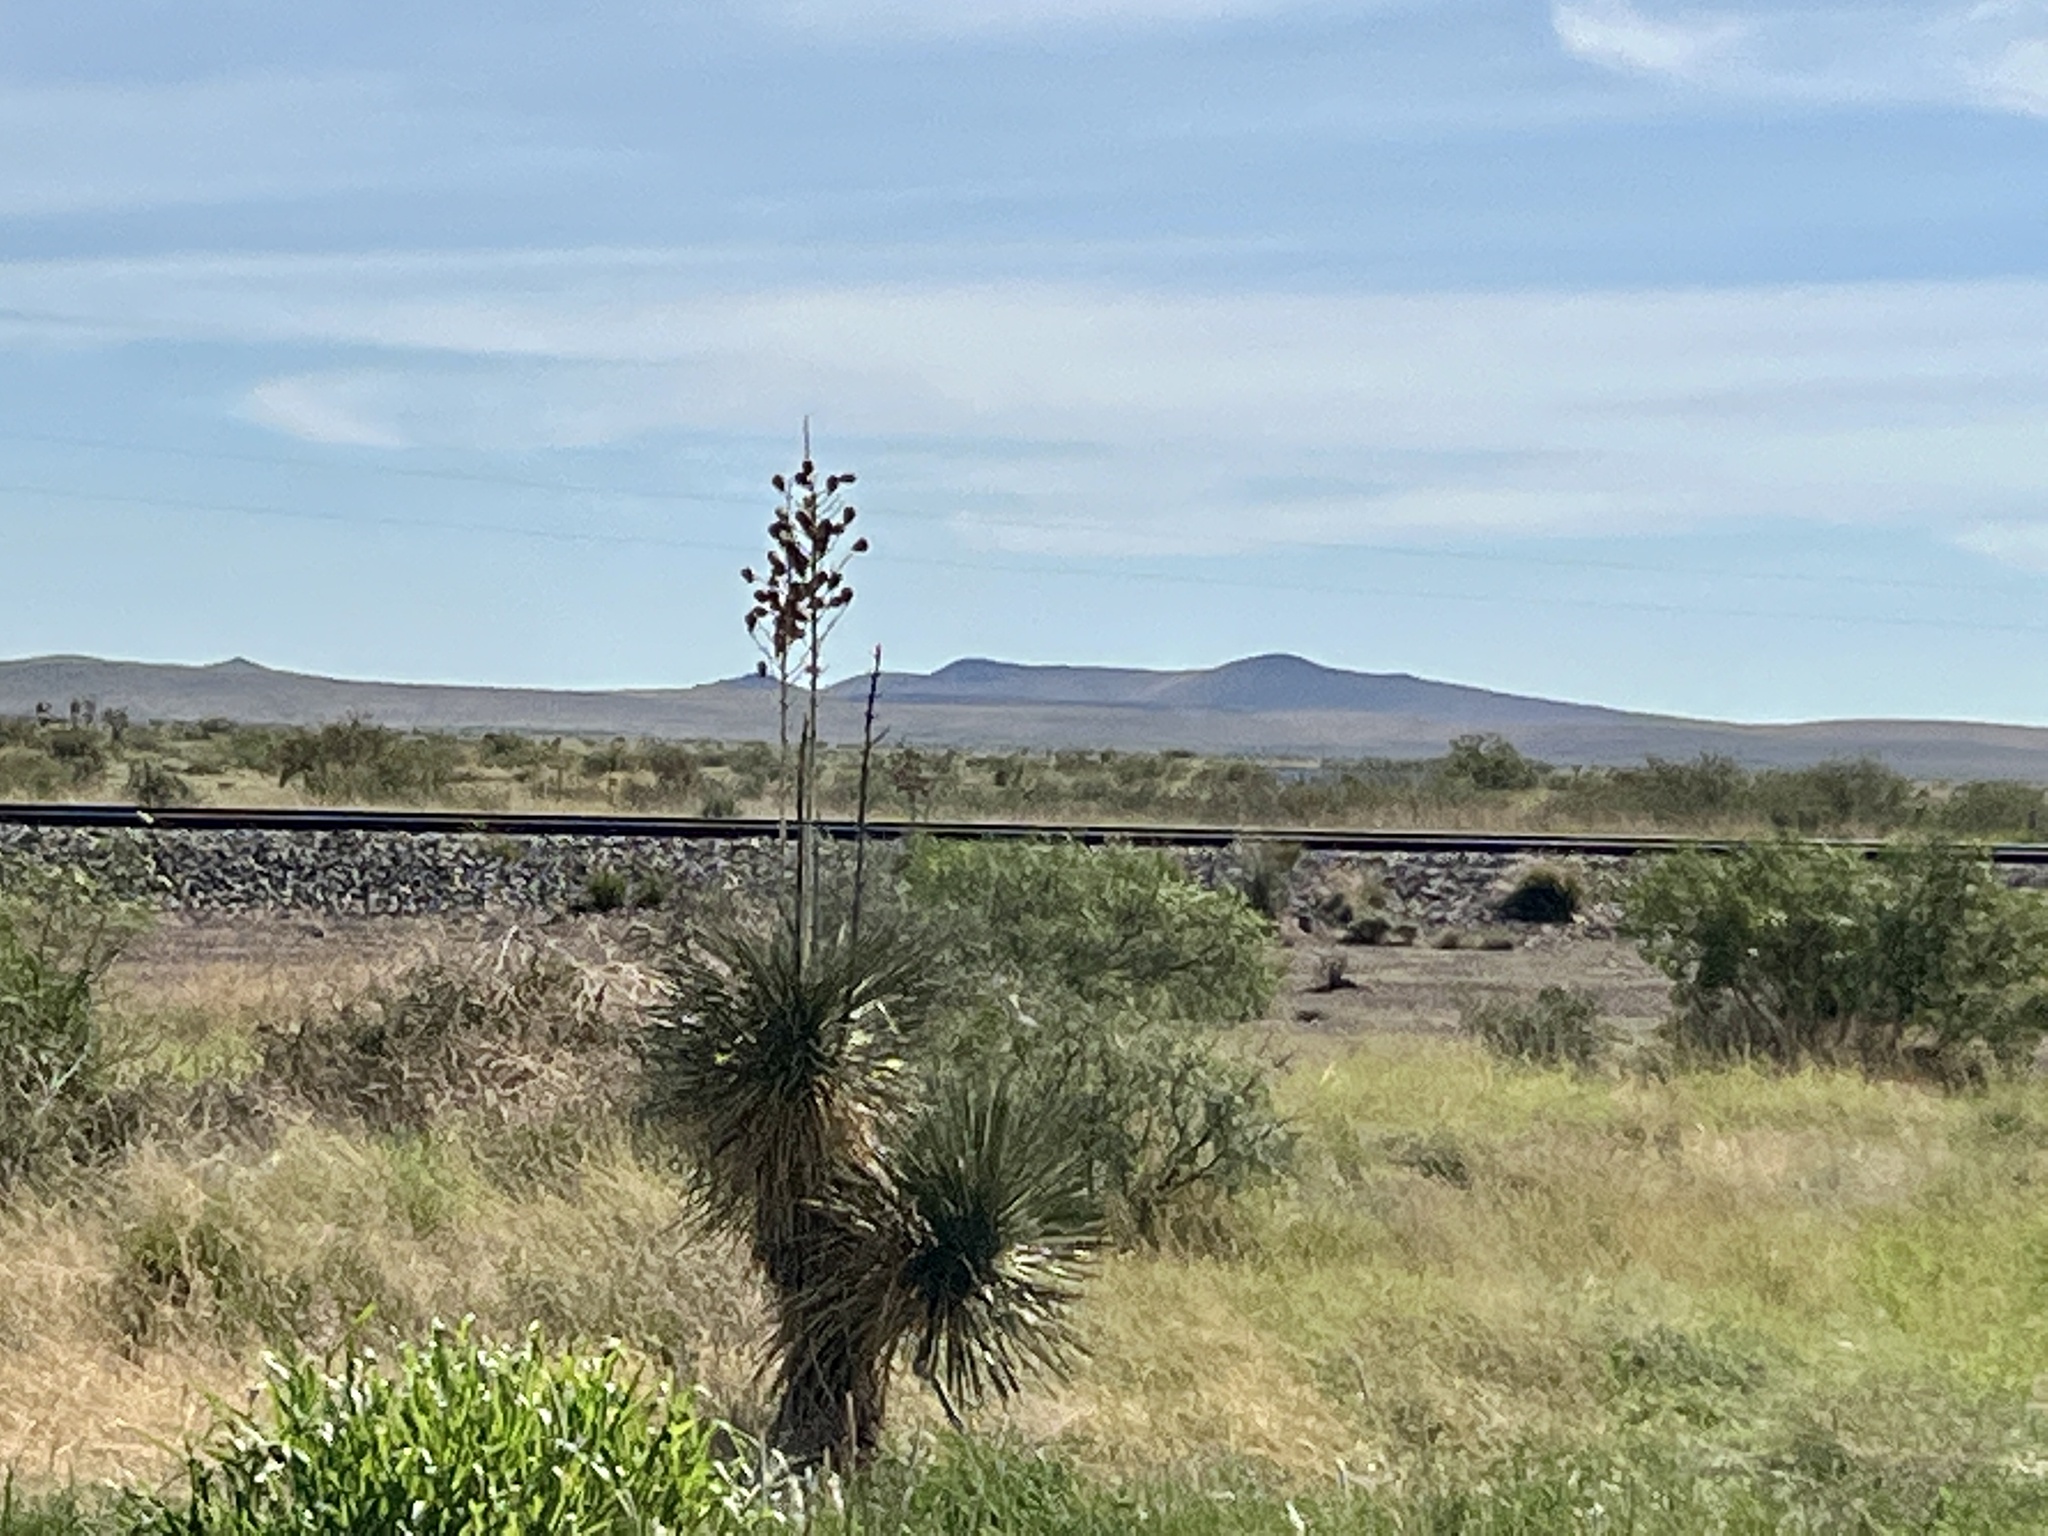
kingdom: Plantae
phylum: Tracheophyta
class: Liliopsida
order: Asparagales
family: Asparagaceae
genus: Yucca
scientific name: Yucca elata
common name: Palmella
